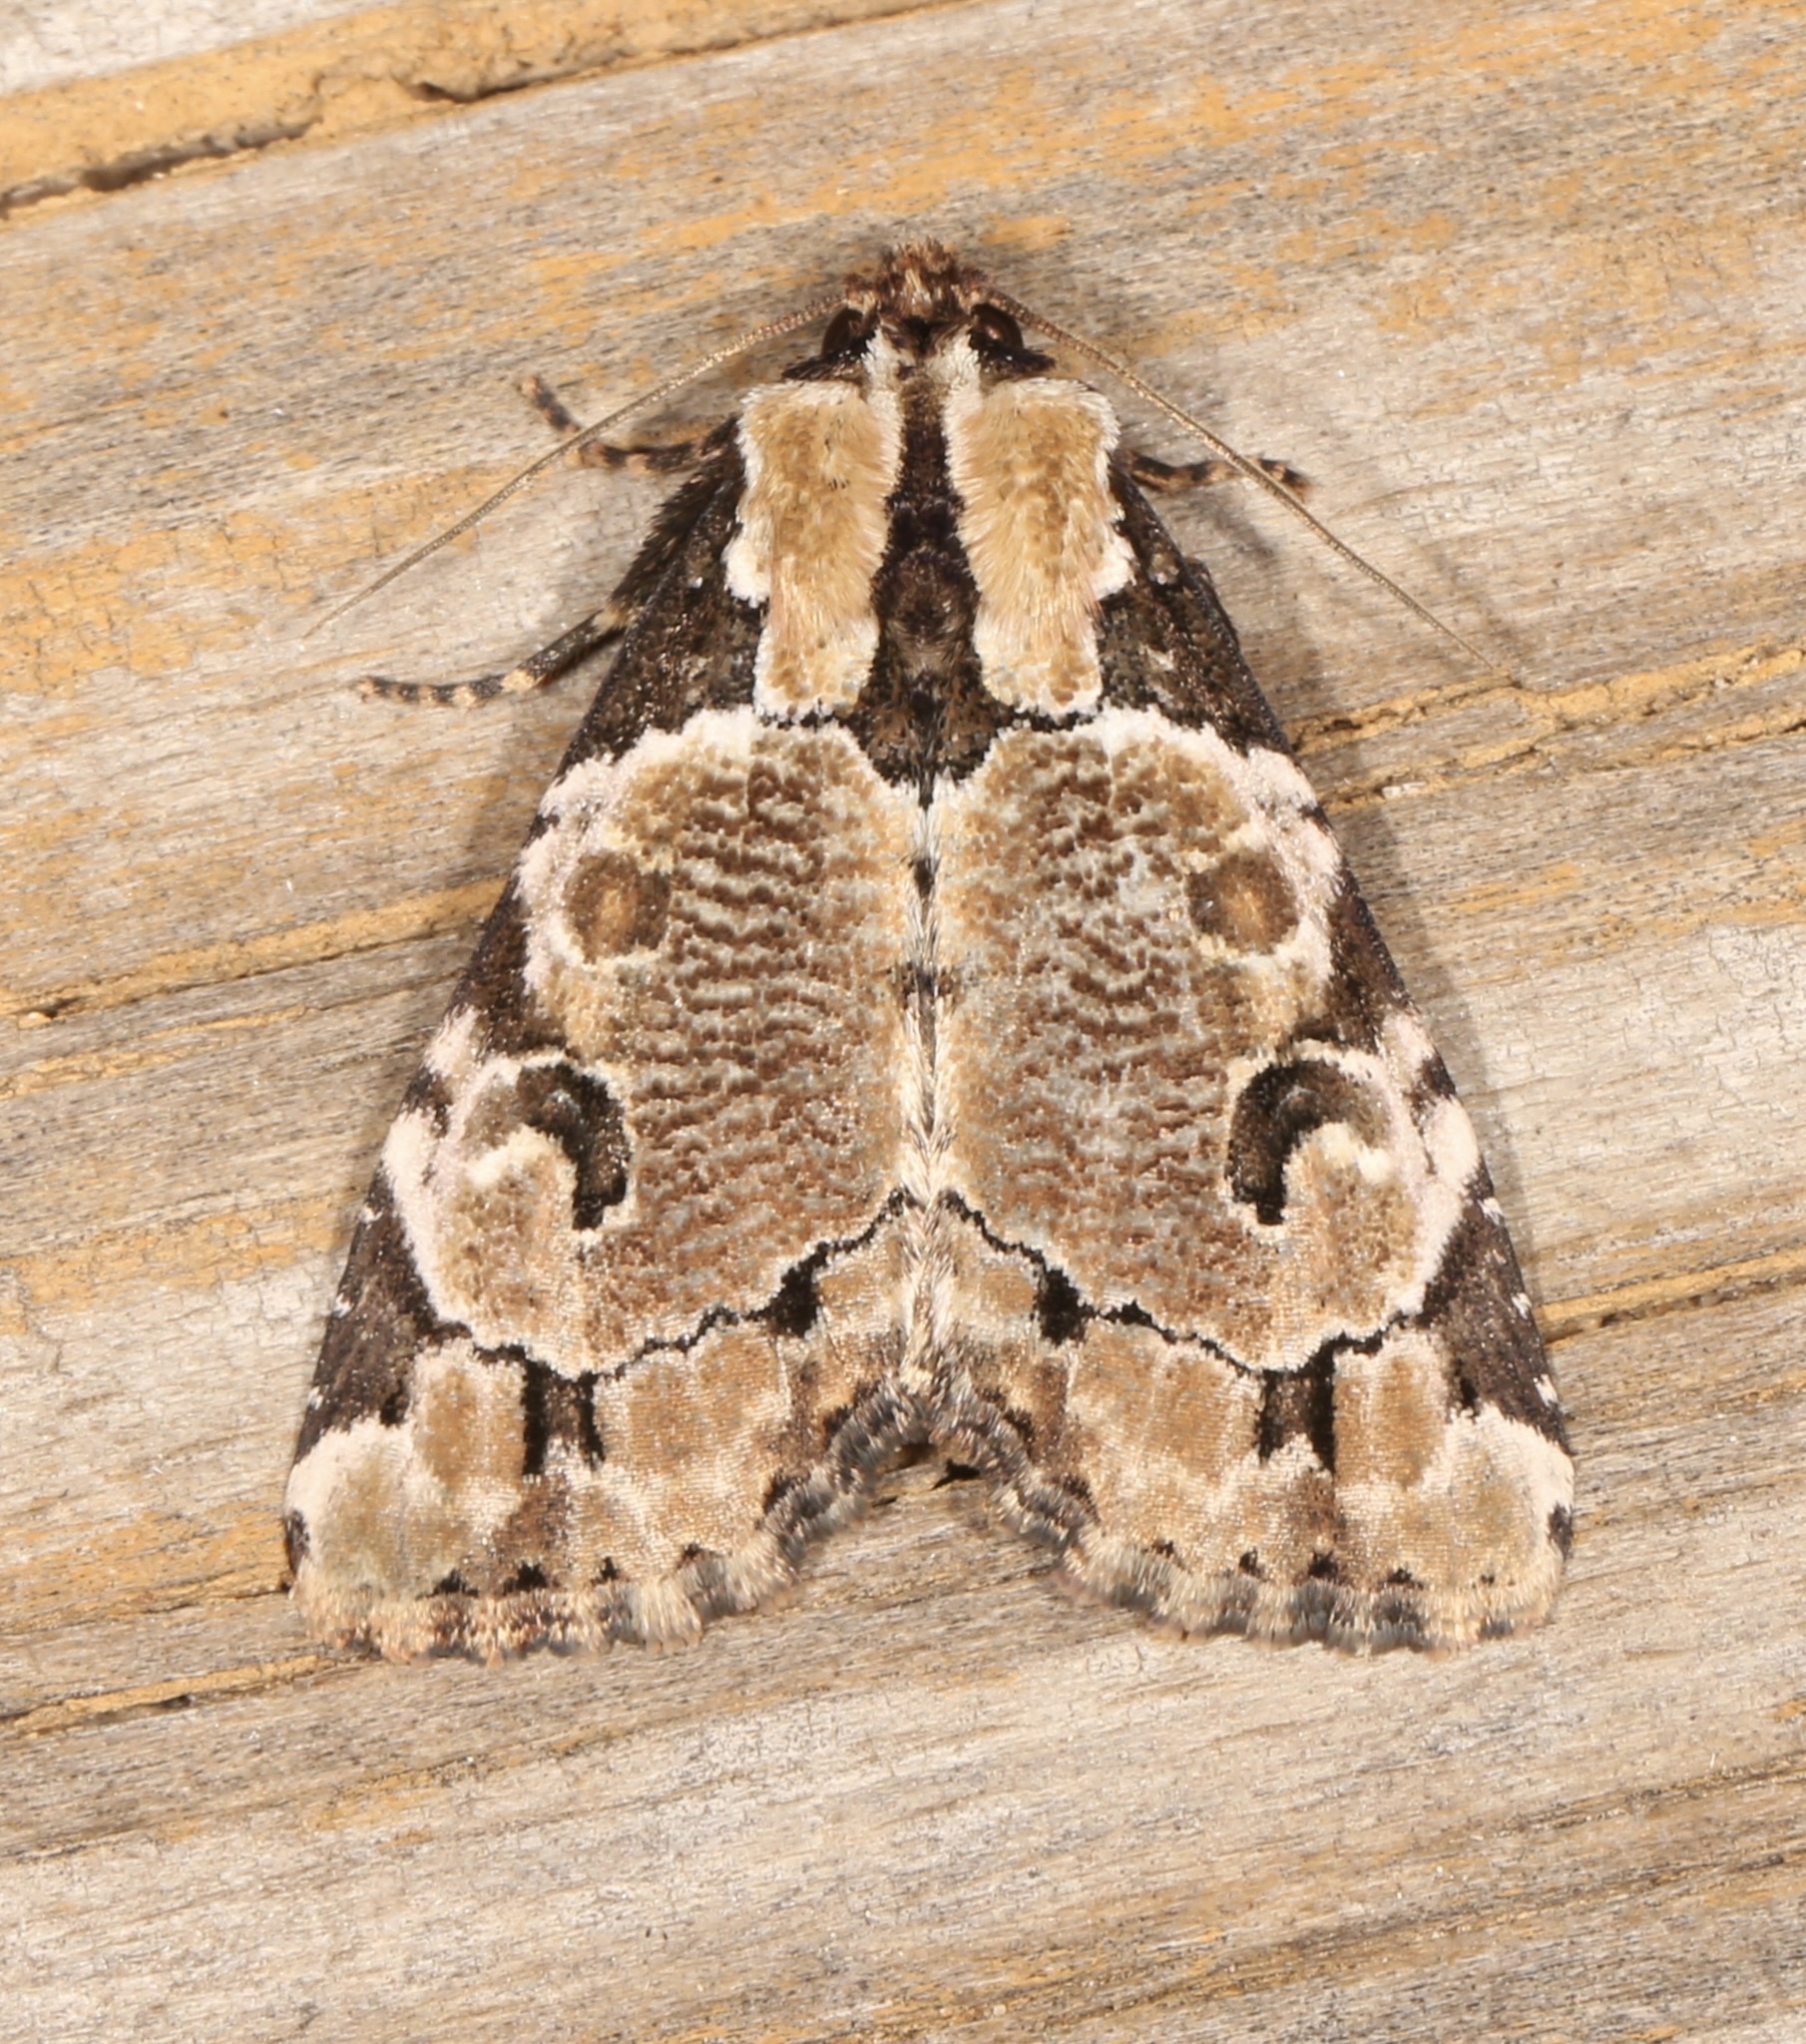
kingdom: Animalia
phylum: Arthropoda
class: Insecta
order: Lepidoptera
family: Noctuidae
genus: Stibaera
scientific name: Stibaera thyatiroides
